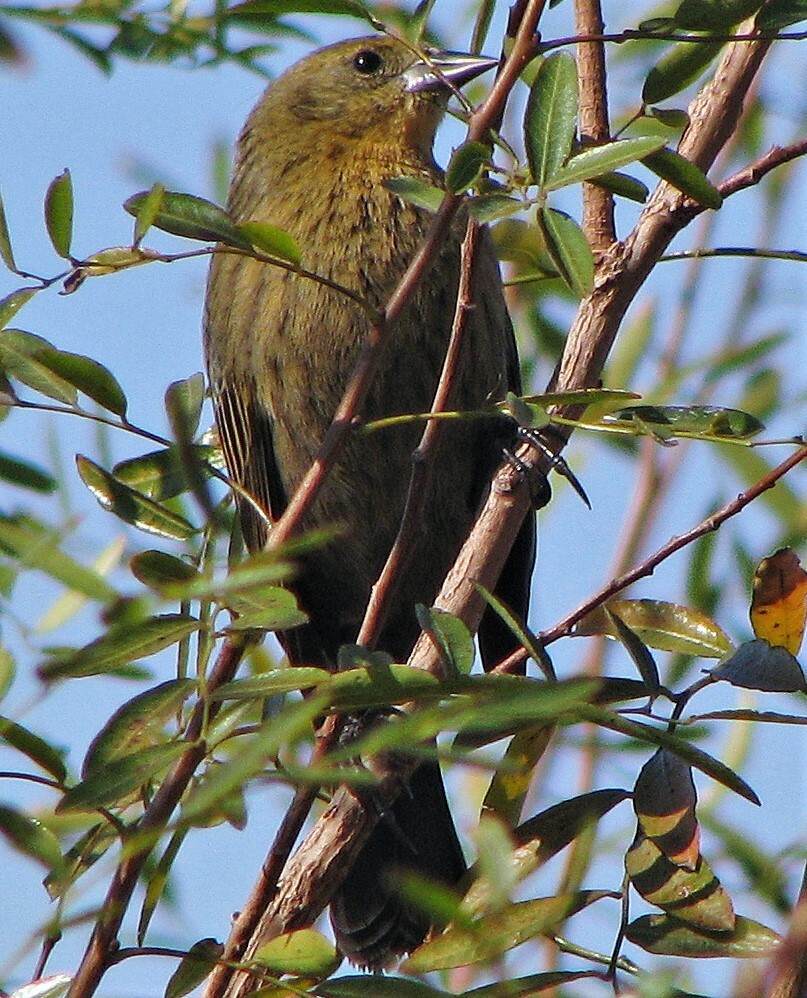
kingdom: Animalia
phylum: Chordata
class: Aves
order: Passeriformes
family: Icteridae
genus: Chrysomus
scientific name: Chrysomus ruficapillus
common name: Chestnut-capped blackbird
